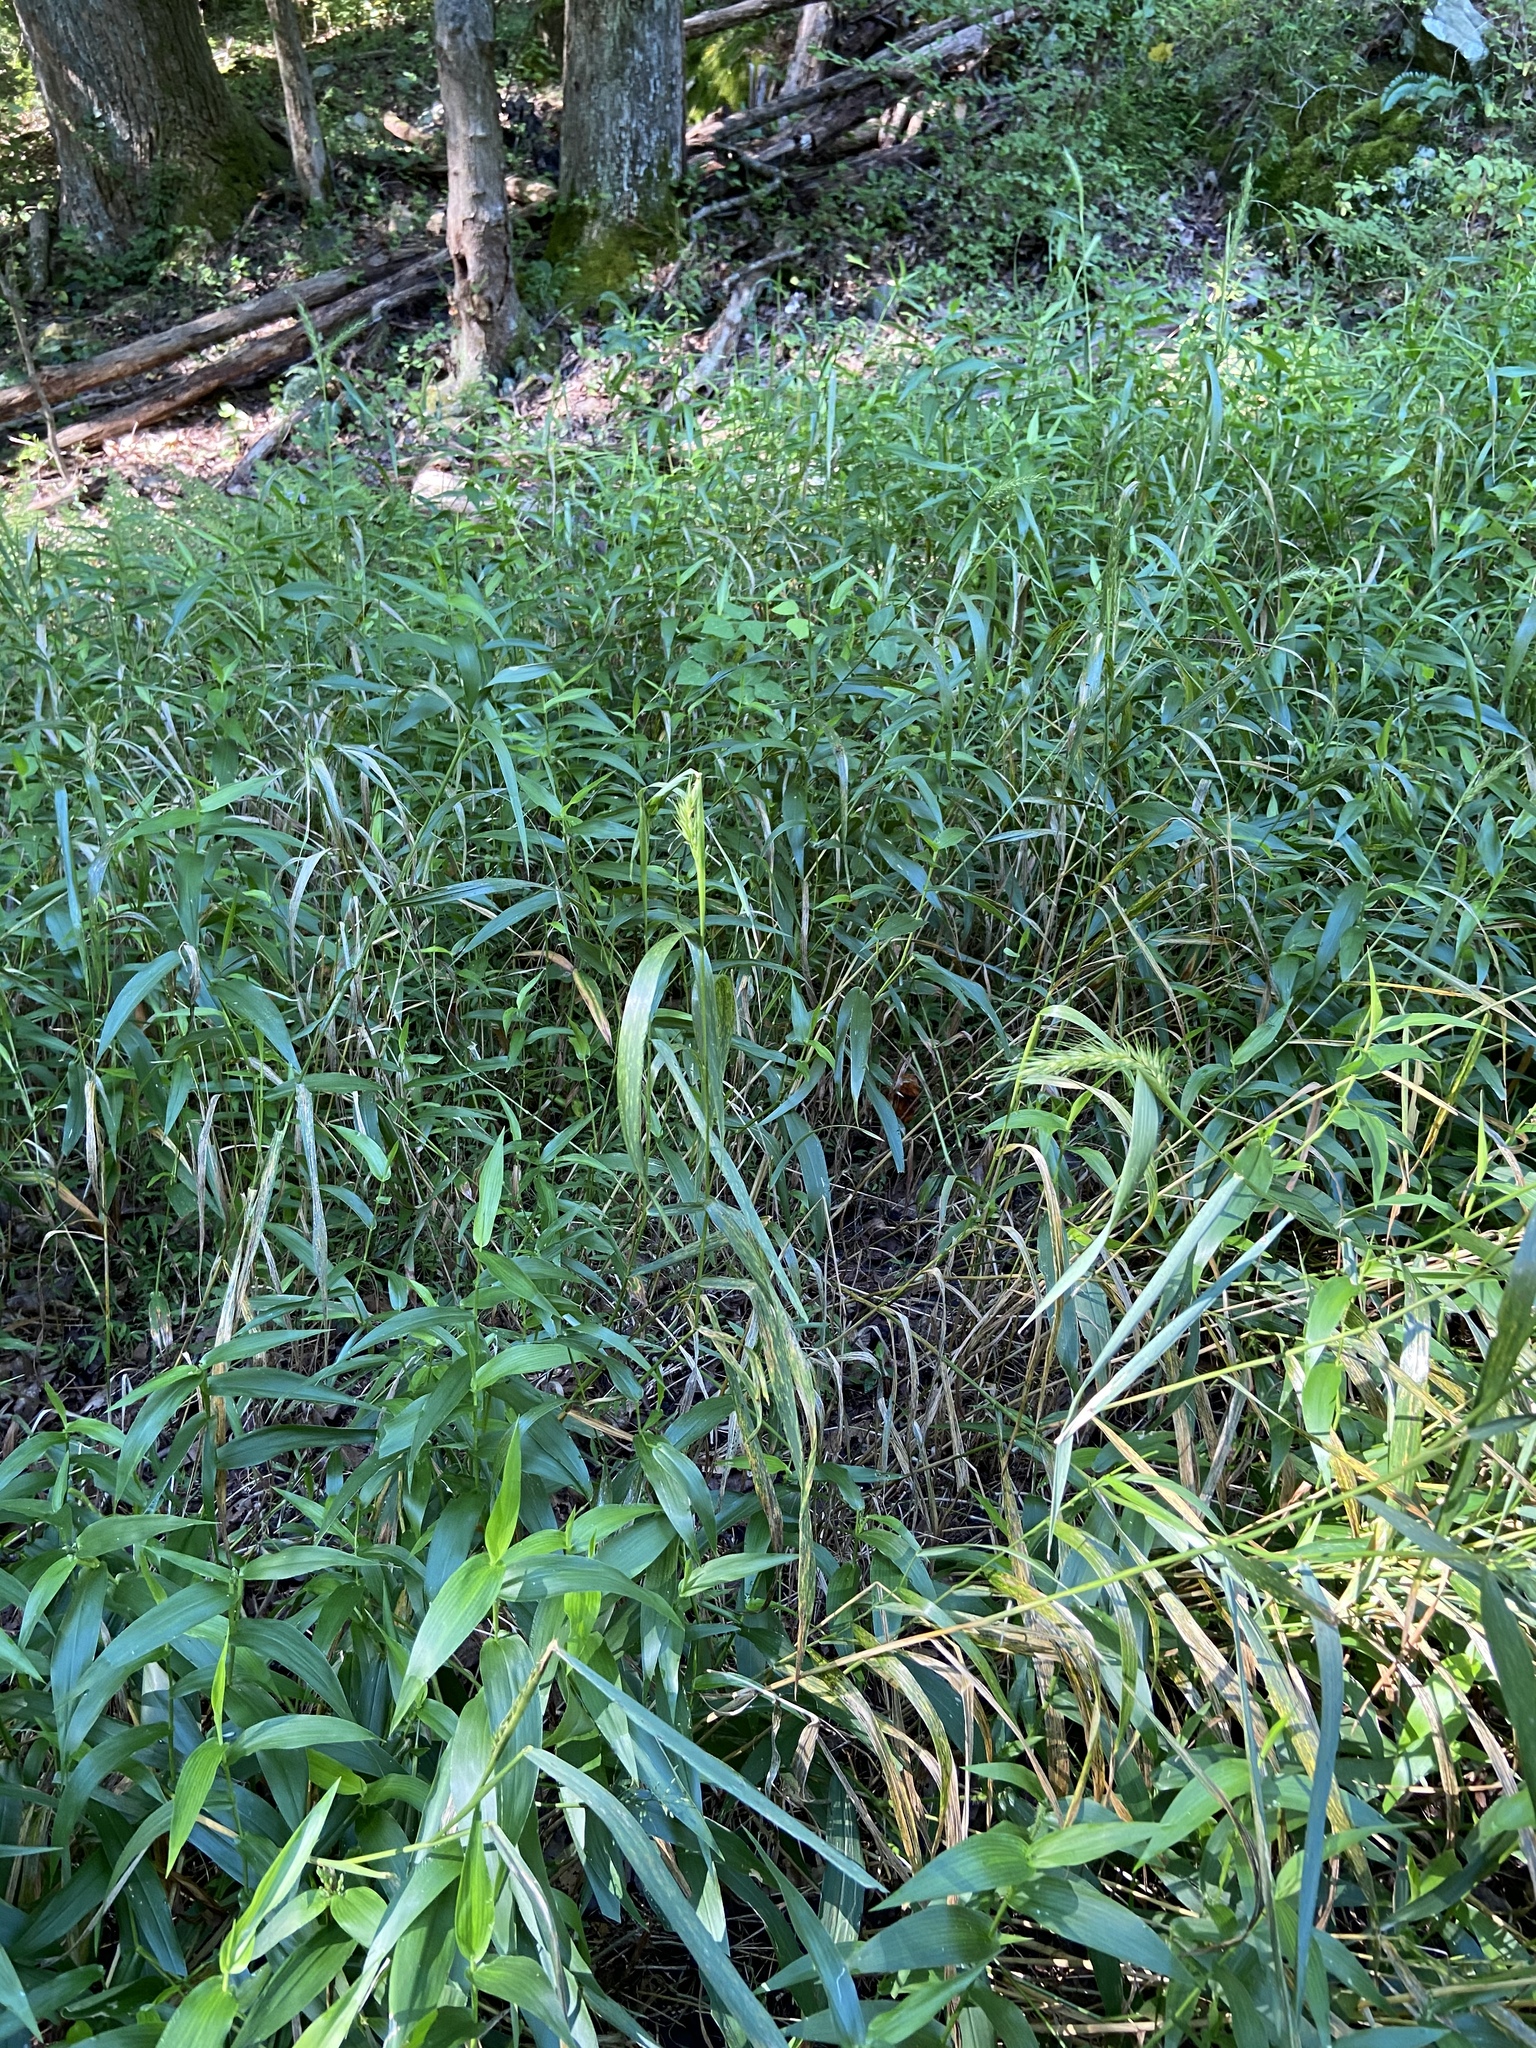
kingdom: Plantae
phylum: Tracheophyta
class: Liliopsida
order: Poales
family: Poaceae
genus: Elymus
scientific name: Elymus virginicus
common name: Common eastern wildrye
